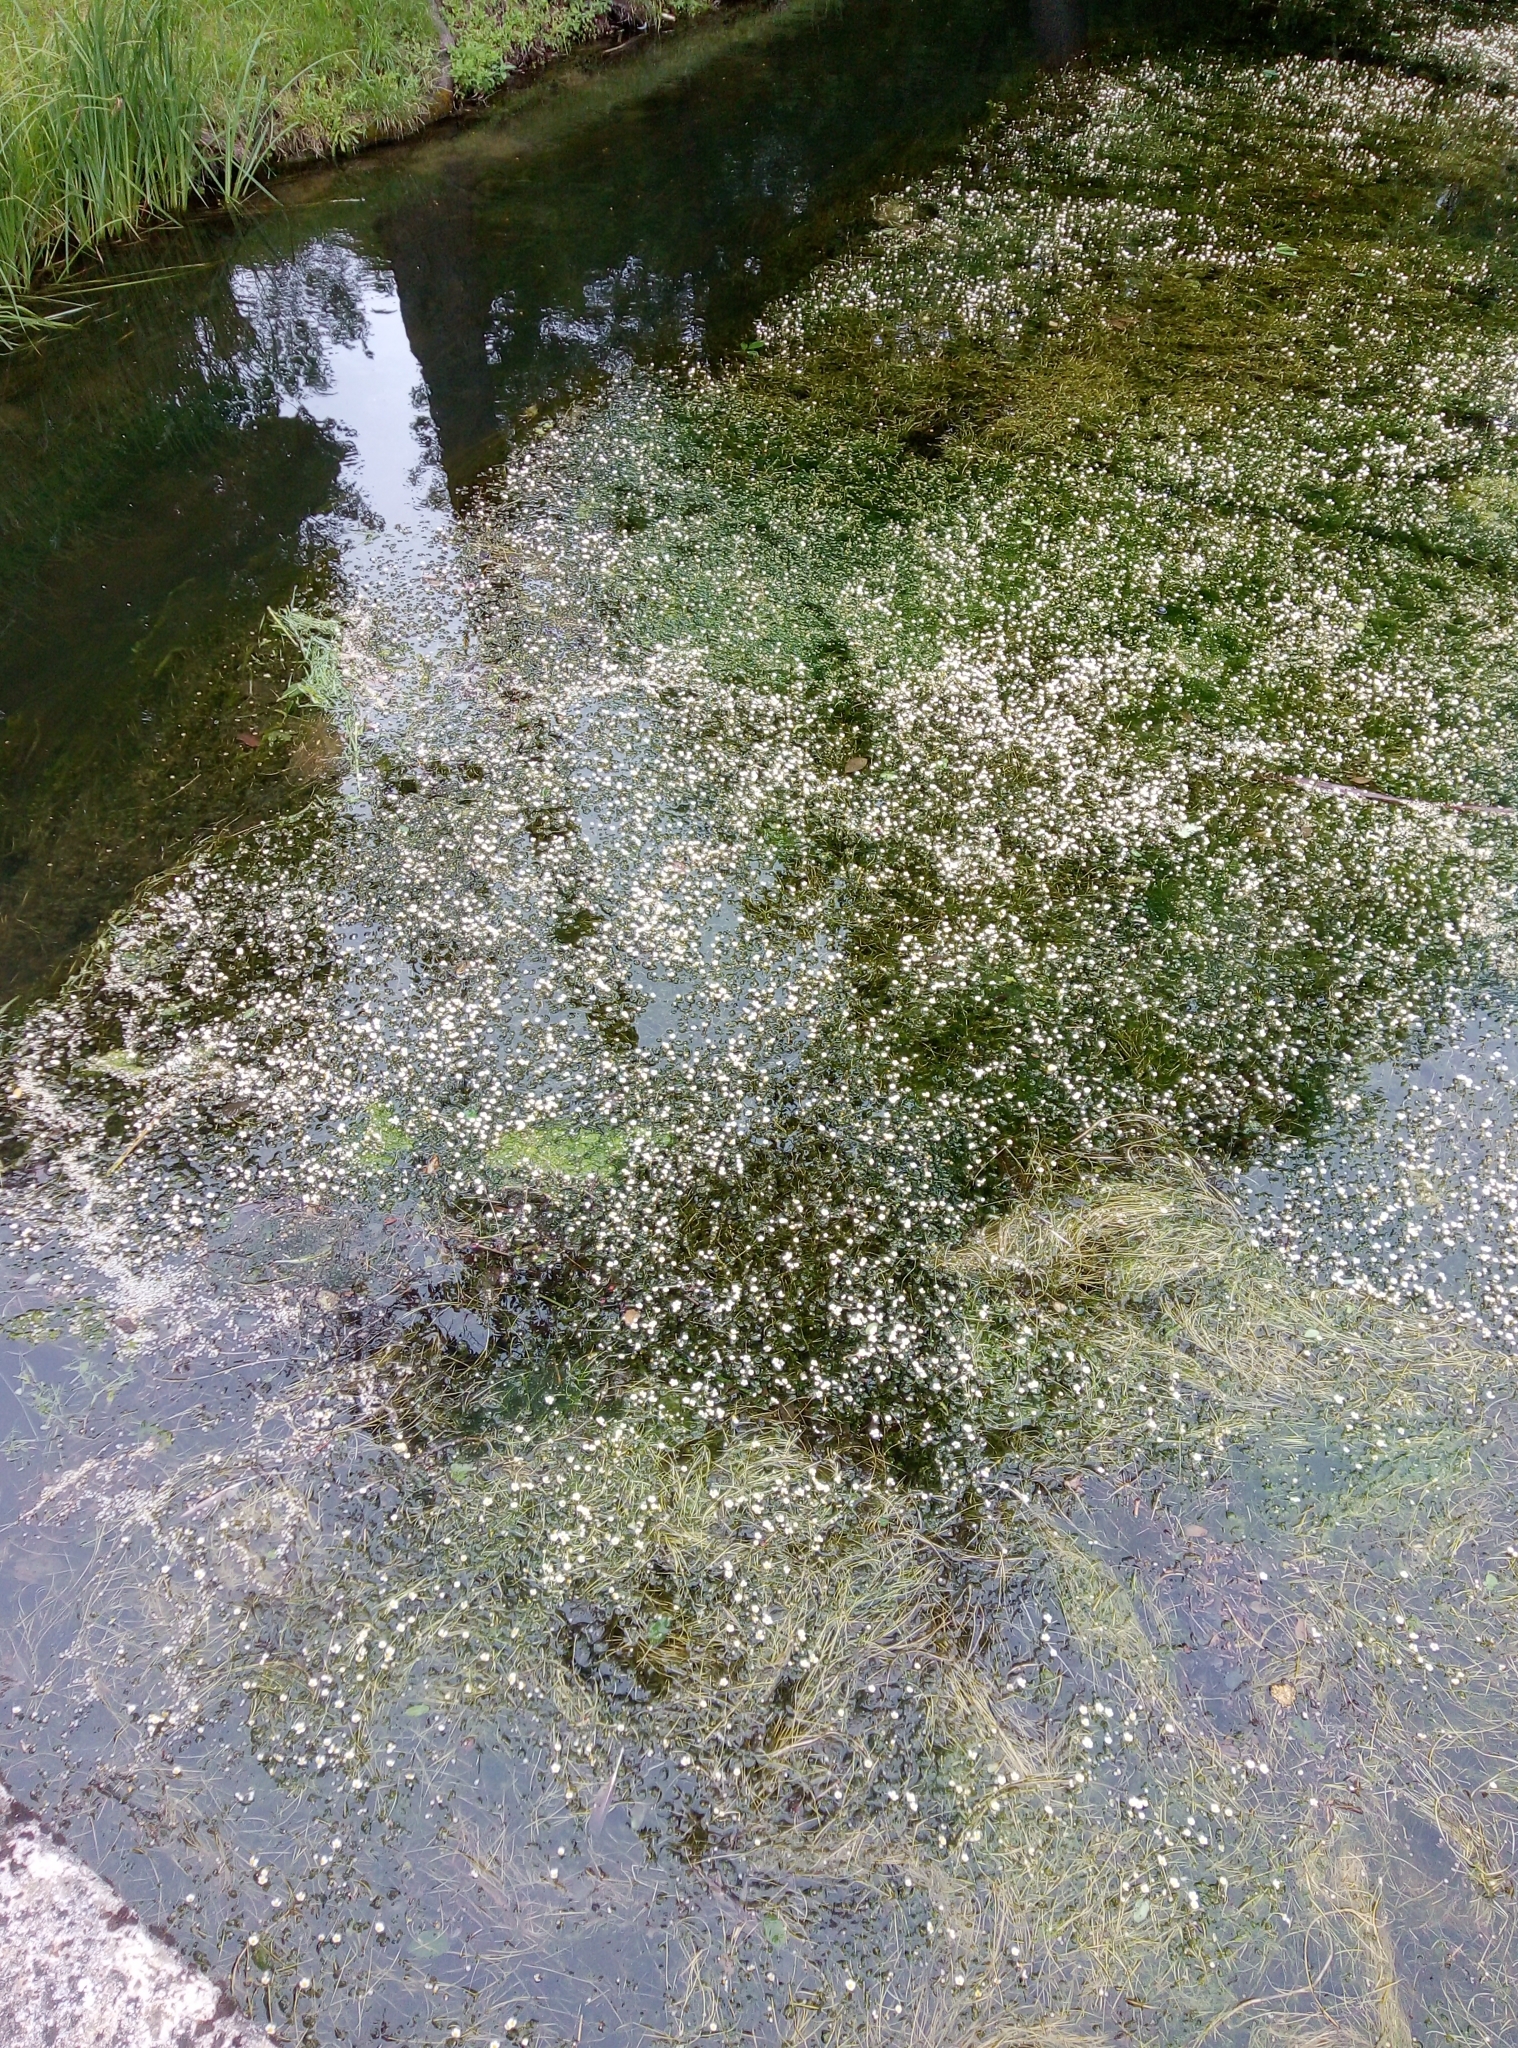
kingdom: Plantae
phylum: Tracheophyta
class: Magnoliopsida
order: Ranunculales
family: Ranunculaceae
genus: Ranunculus
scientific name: Ranunculus aquatilis
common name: Common water-crowfoot
